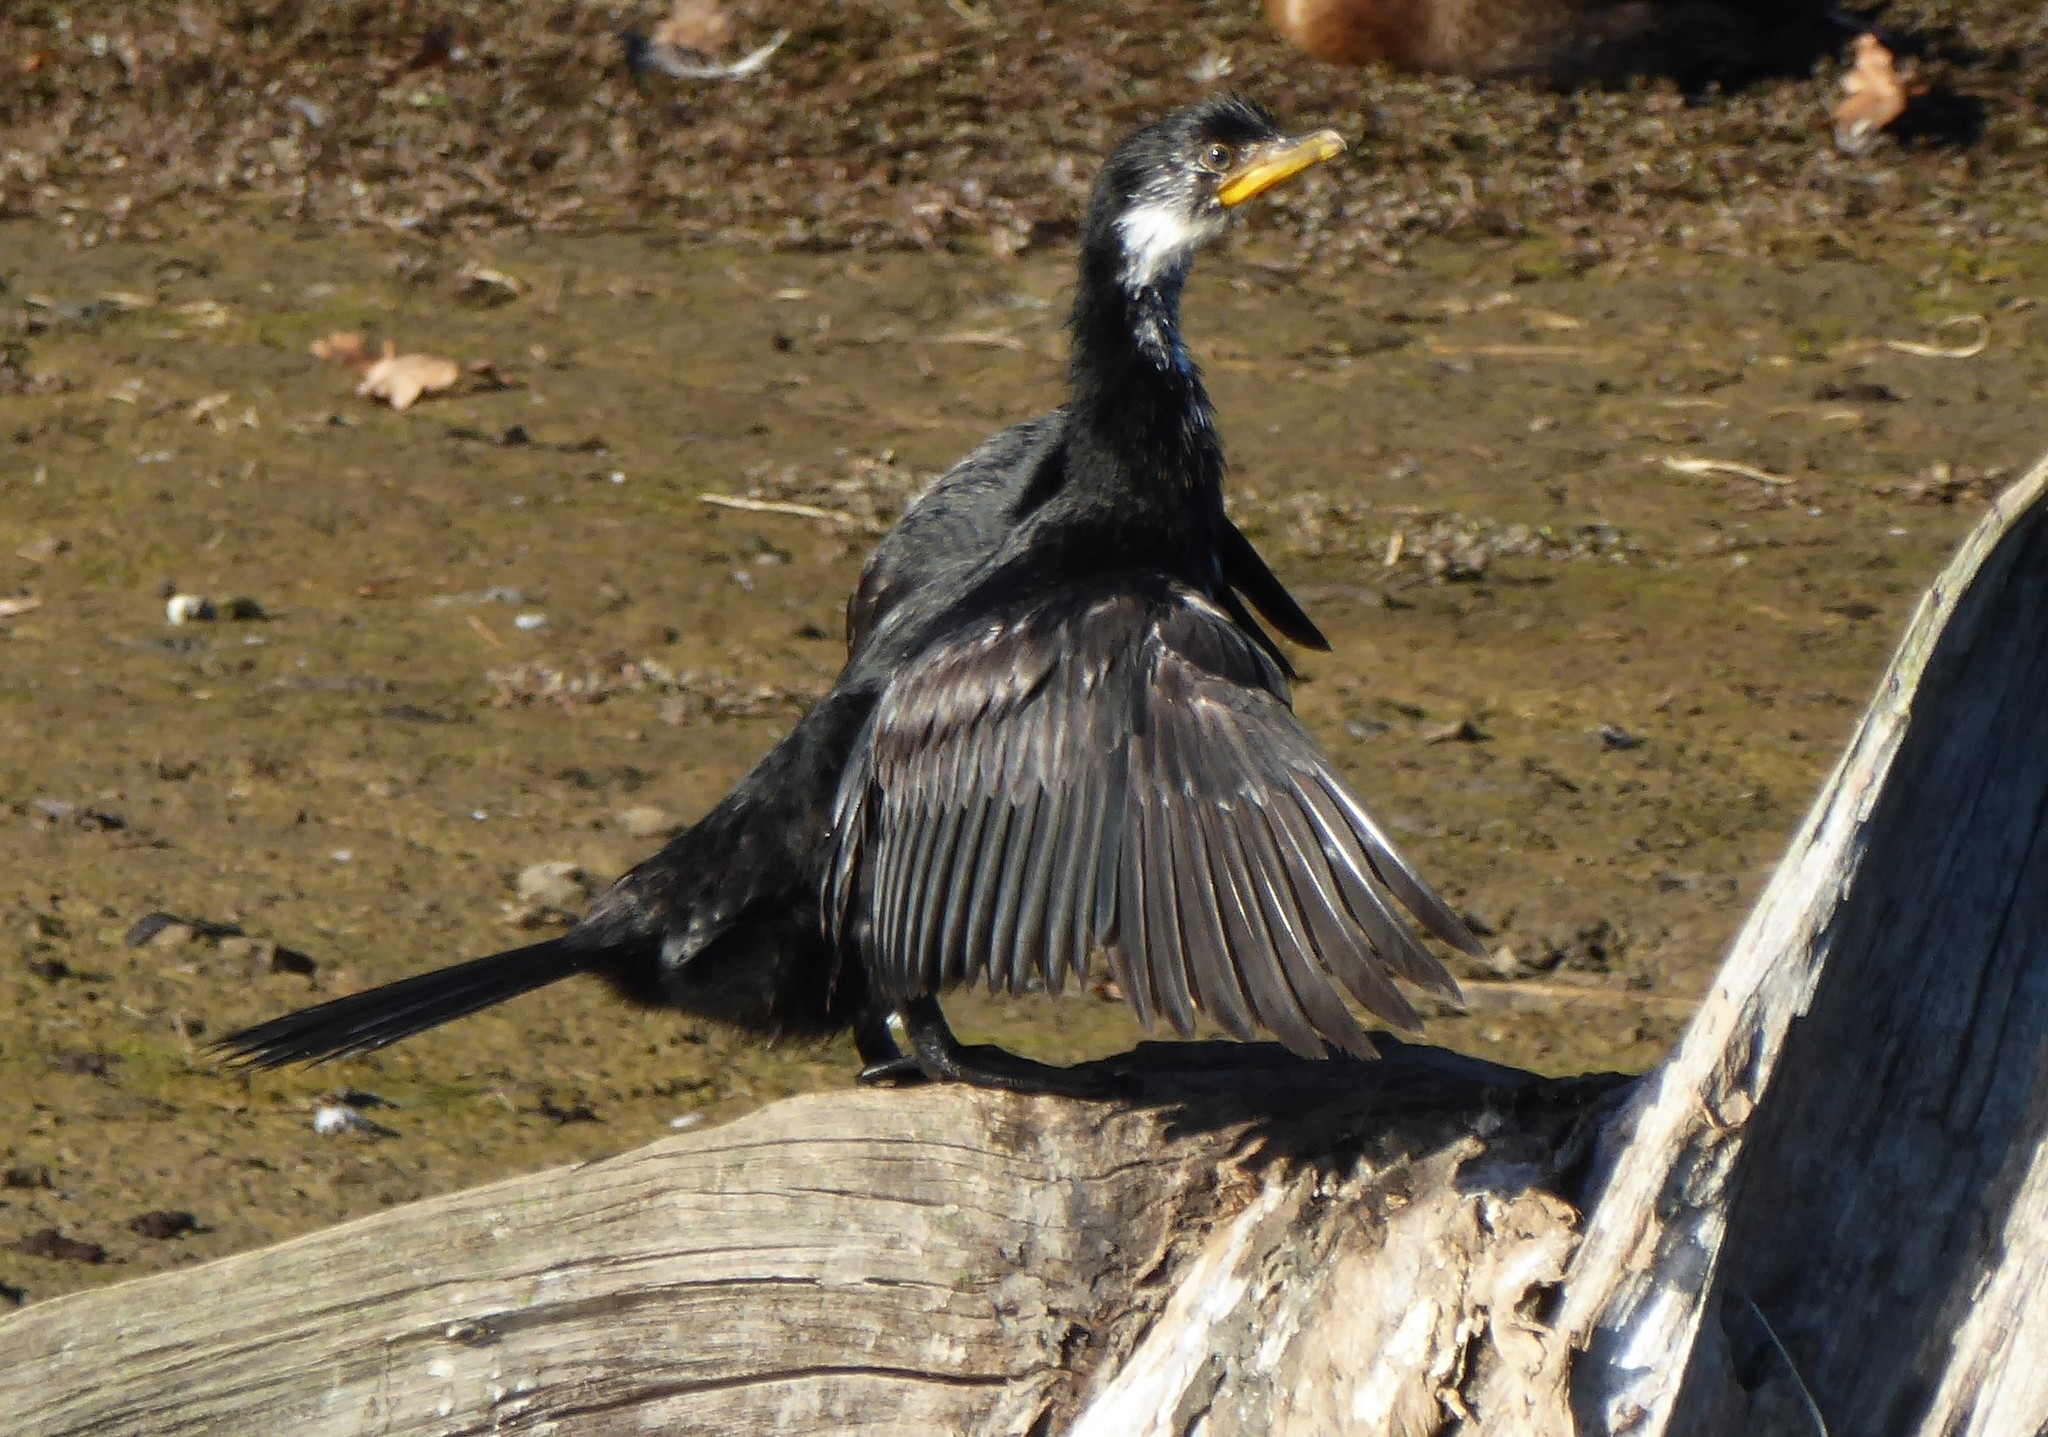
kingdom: Animalia
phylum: Chordata
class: Aves
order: Suliformes
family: Phalacrocoracidae
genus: Microcarbo
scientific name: Microcarbo melanoleucos
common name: Little pied cormorant
